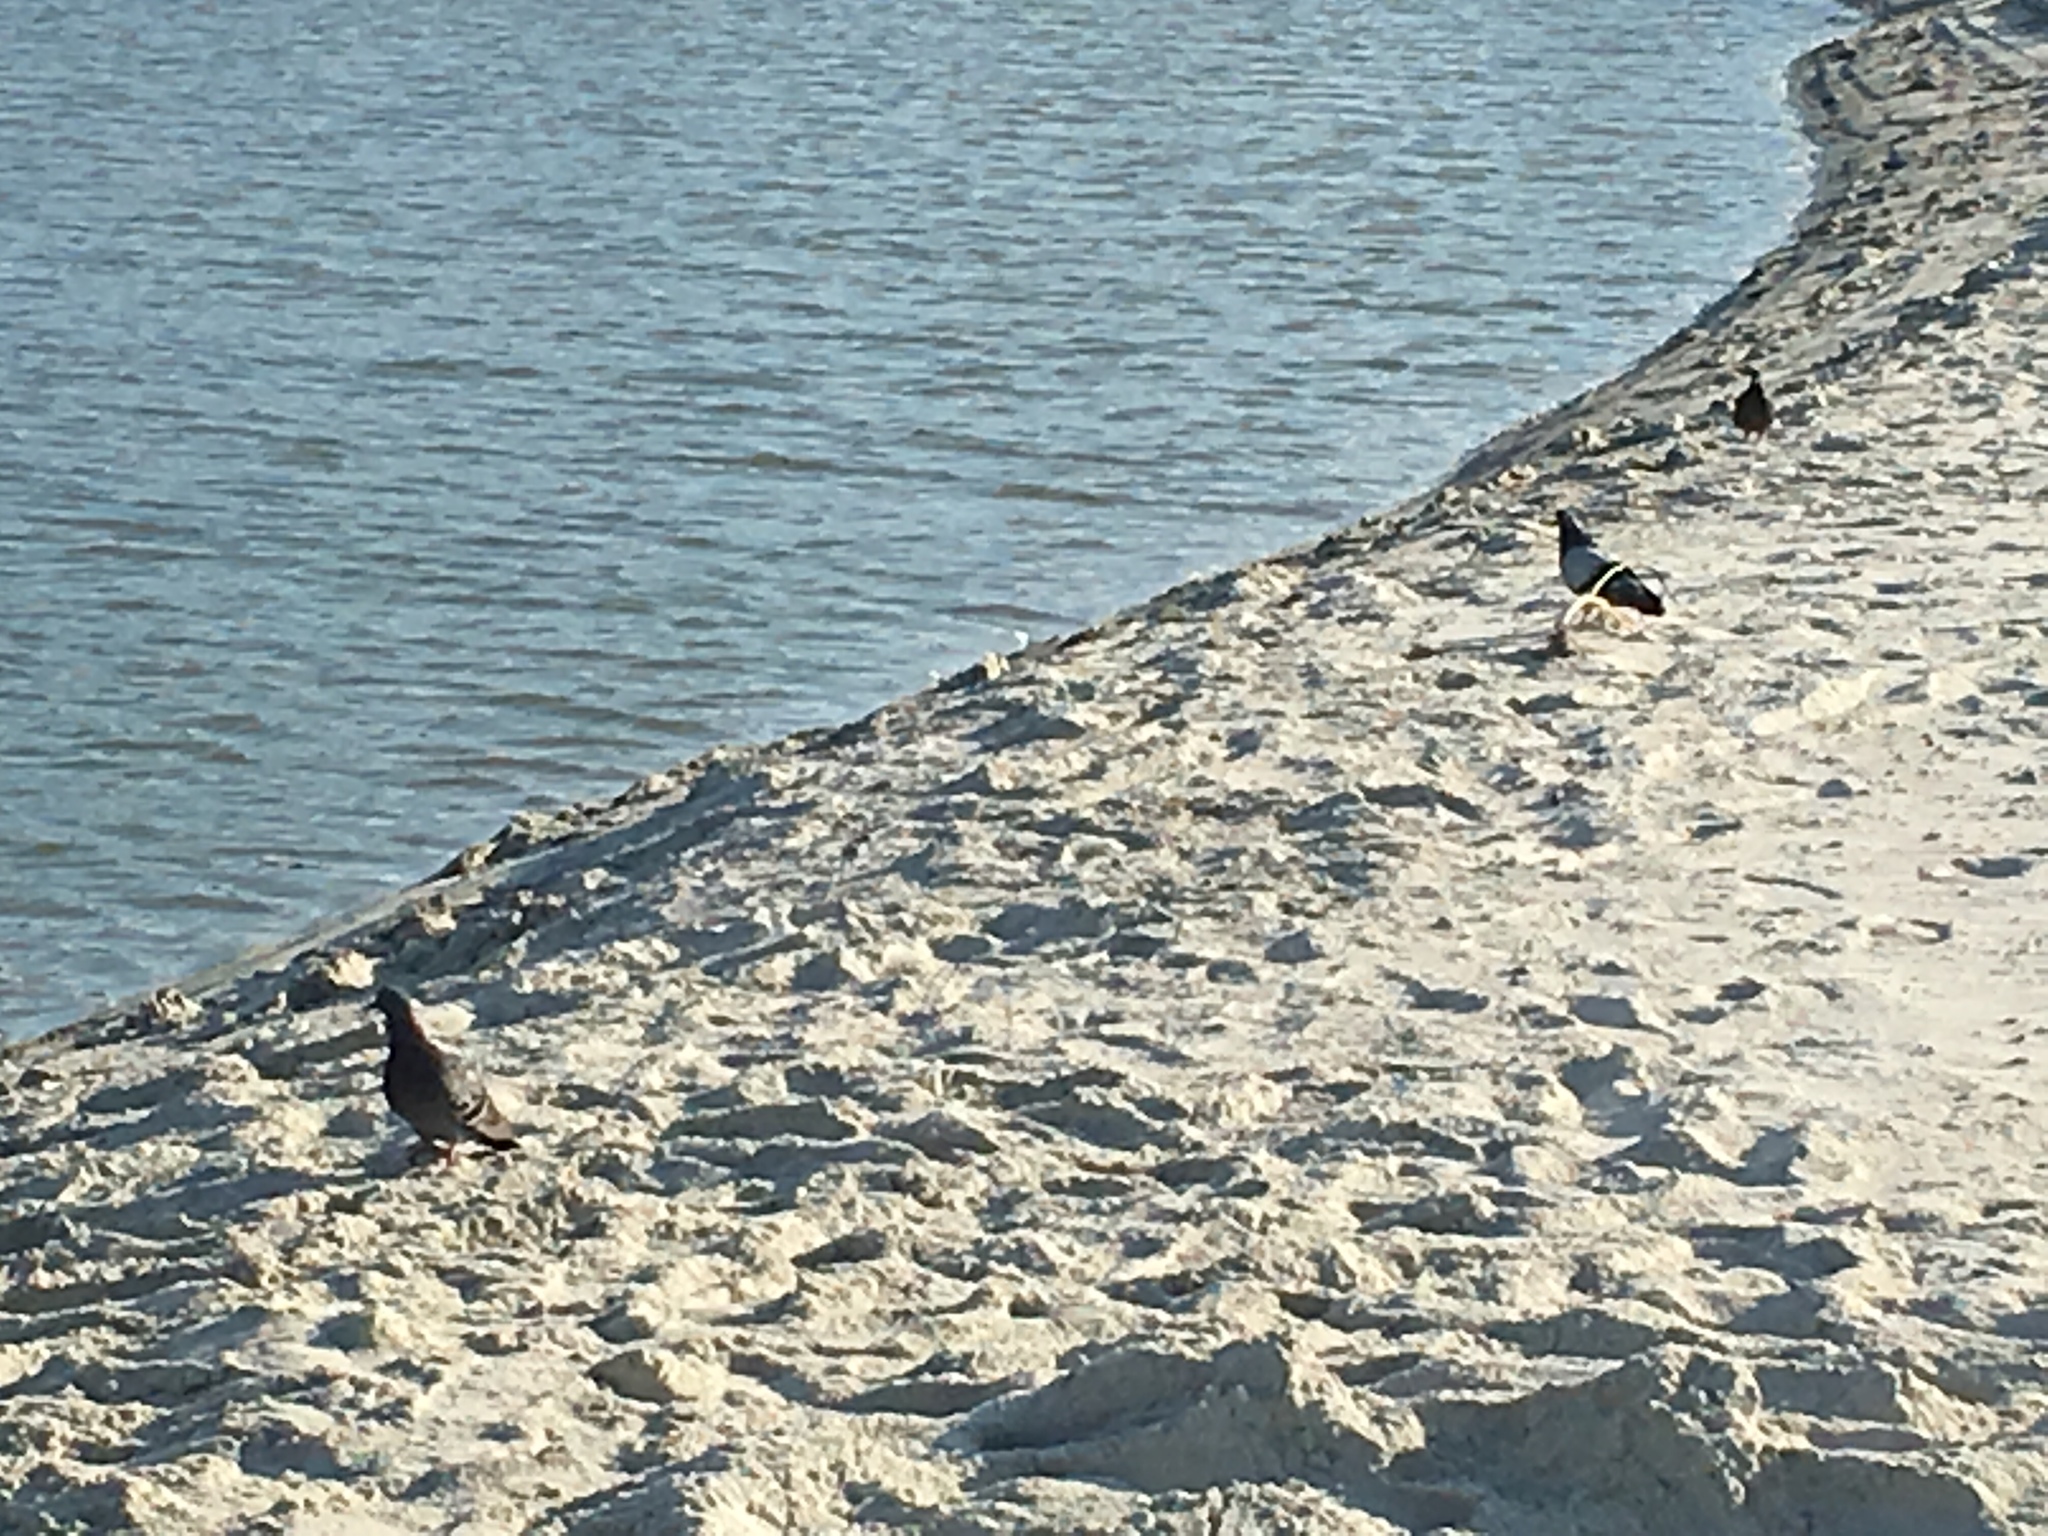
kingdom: Animalia
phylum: Chordata
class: Aves
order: Columbiformes
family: Columbidae
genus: Columba
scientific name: Columba livia
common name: Rock pigeon
